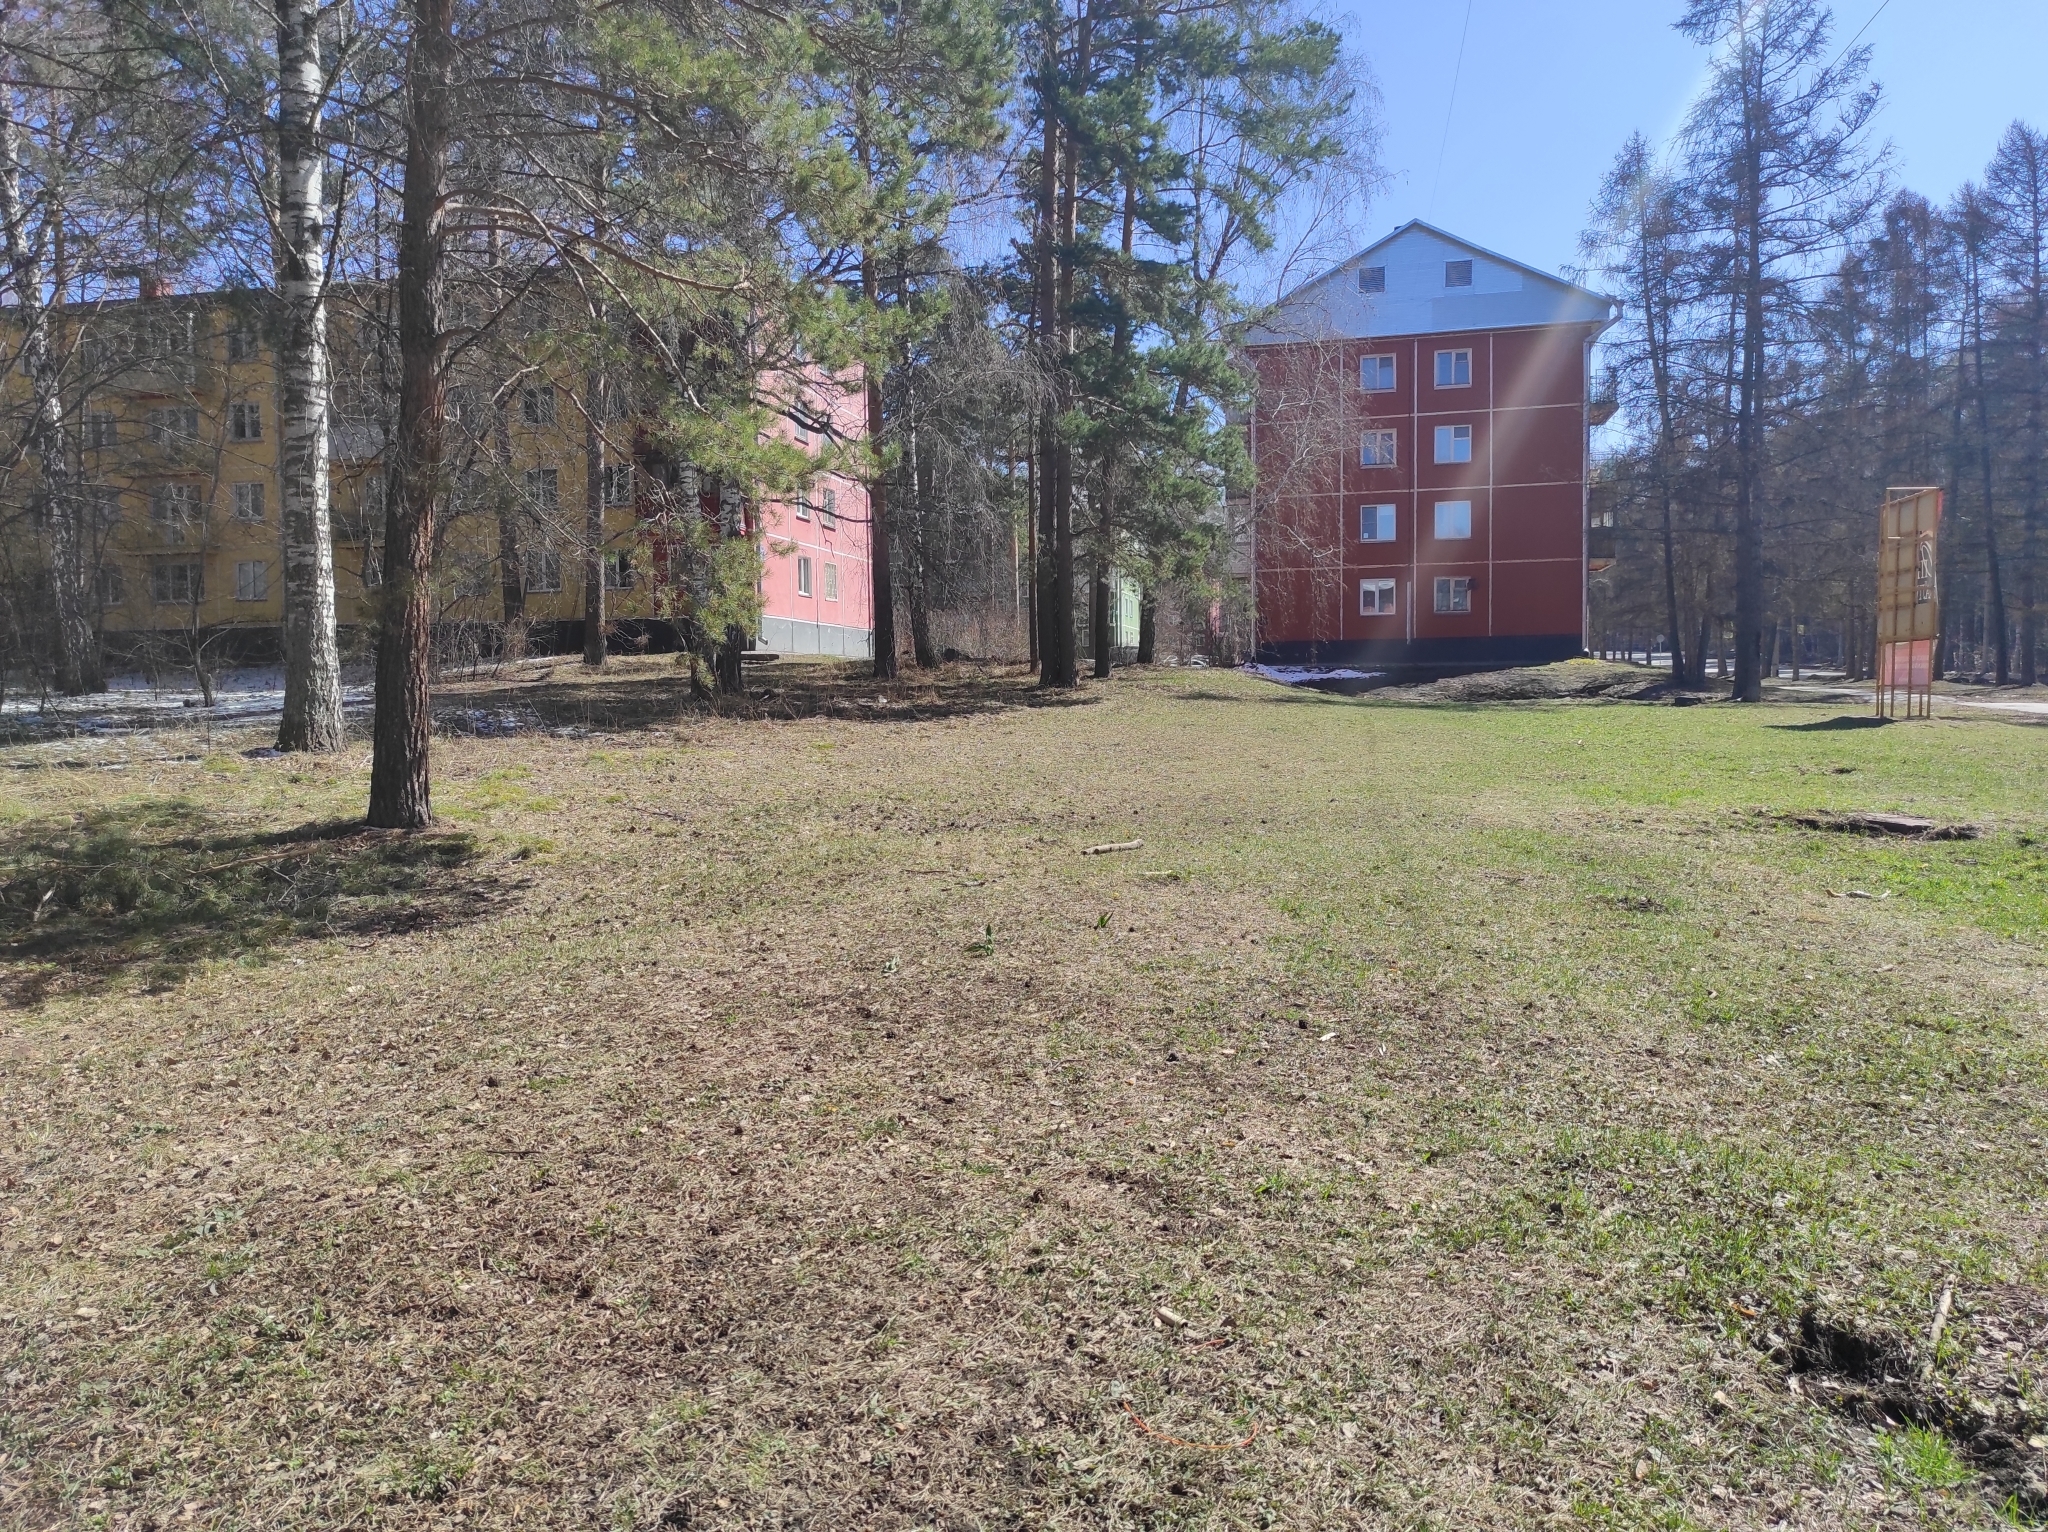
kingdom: Plantae
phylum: Tracheophyta
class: Pinopsida
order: Pinales
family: Pinaceae
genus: Pinus
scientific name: Pinus sylvestris
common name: Scots pine
